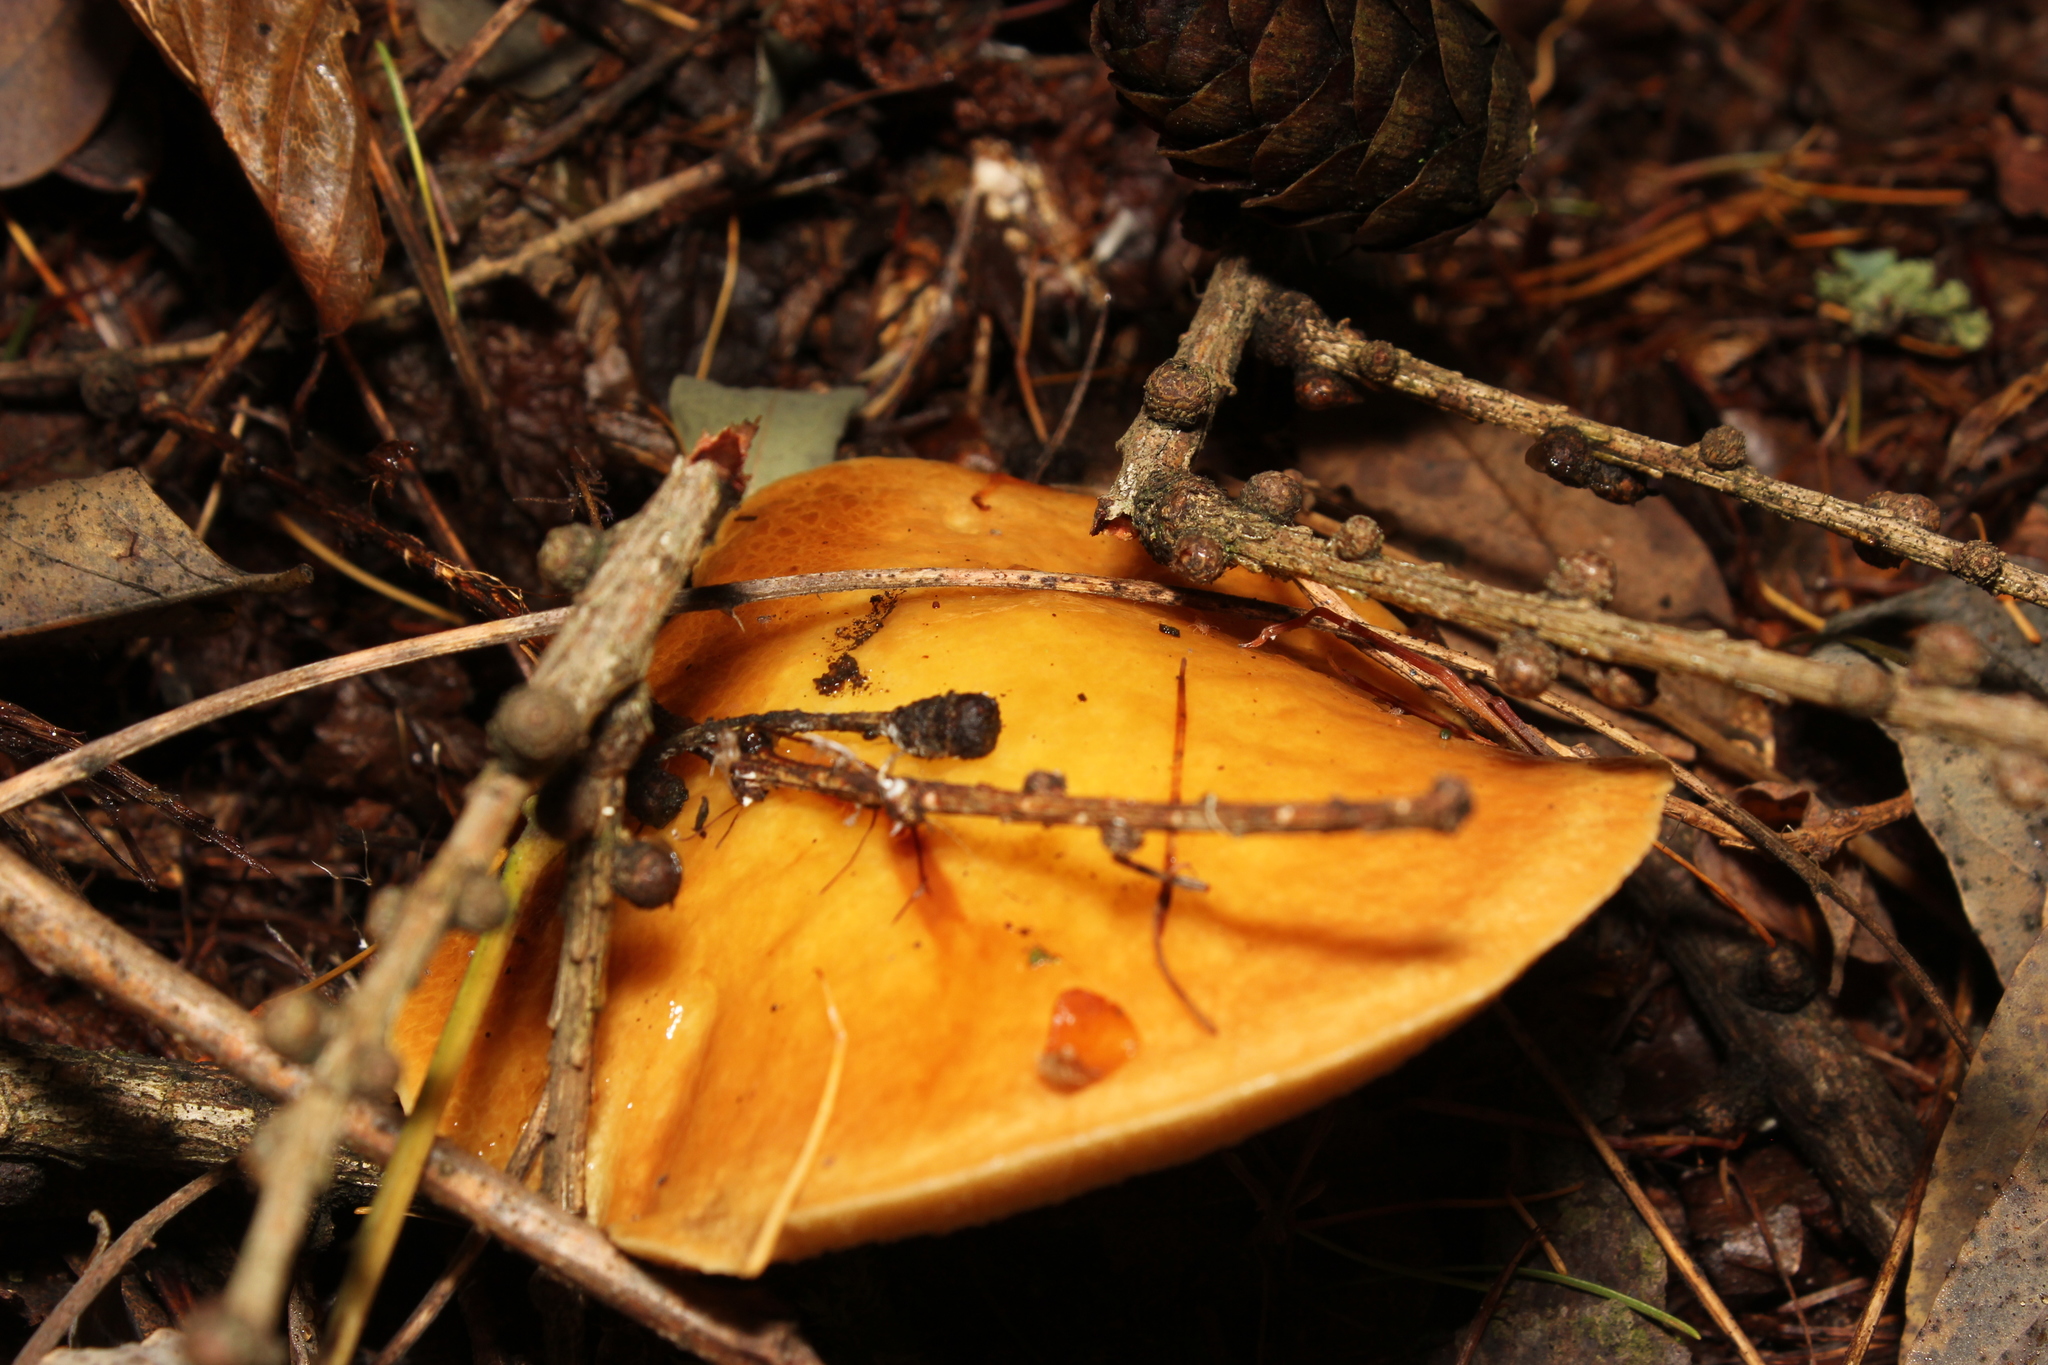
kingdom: Fungi
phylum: Basidiomycota
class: Agaricomycetes
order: Boletales
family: Suillaceae
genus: Suillus
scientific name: Suillus grevillei
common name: Larch bolete
